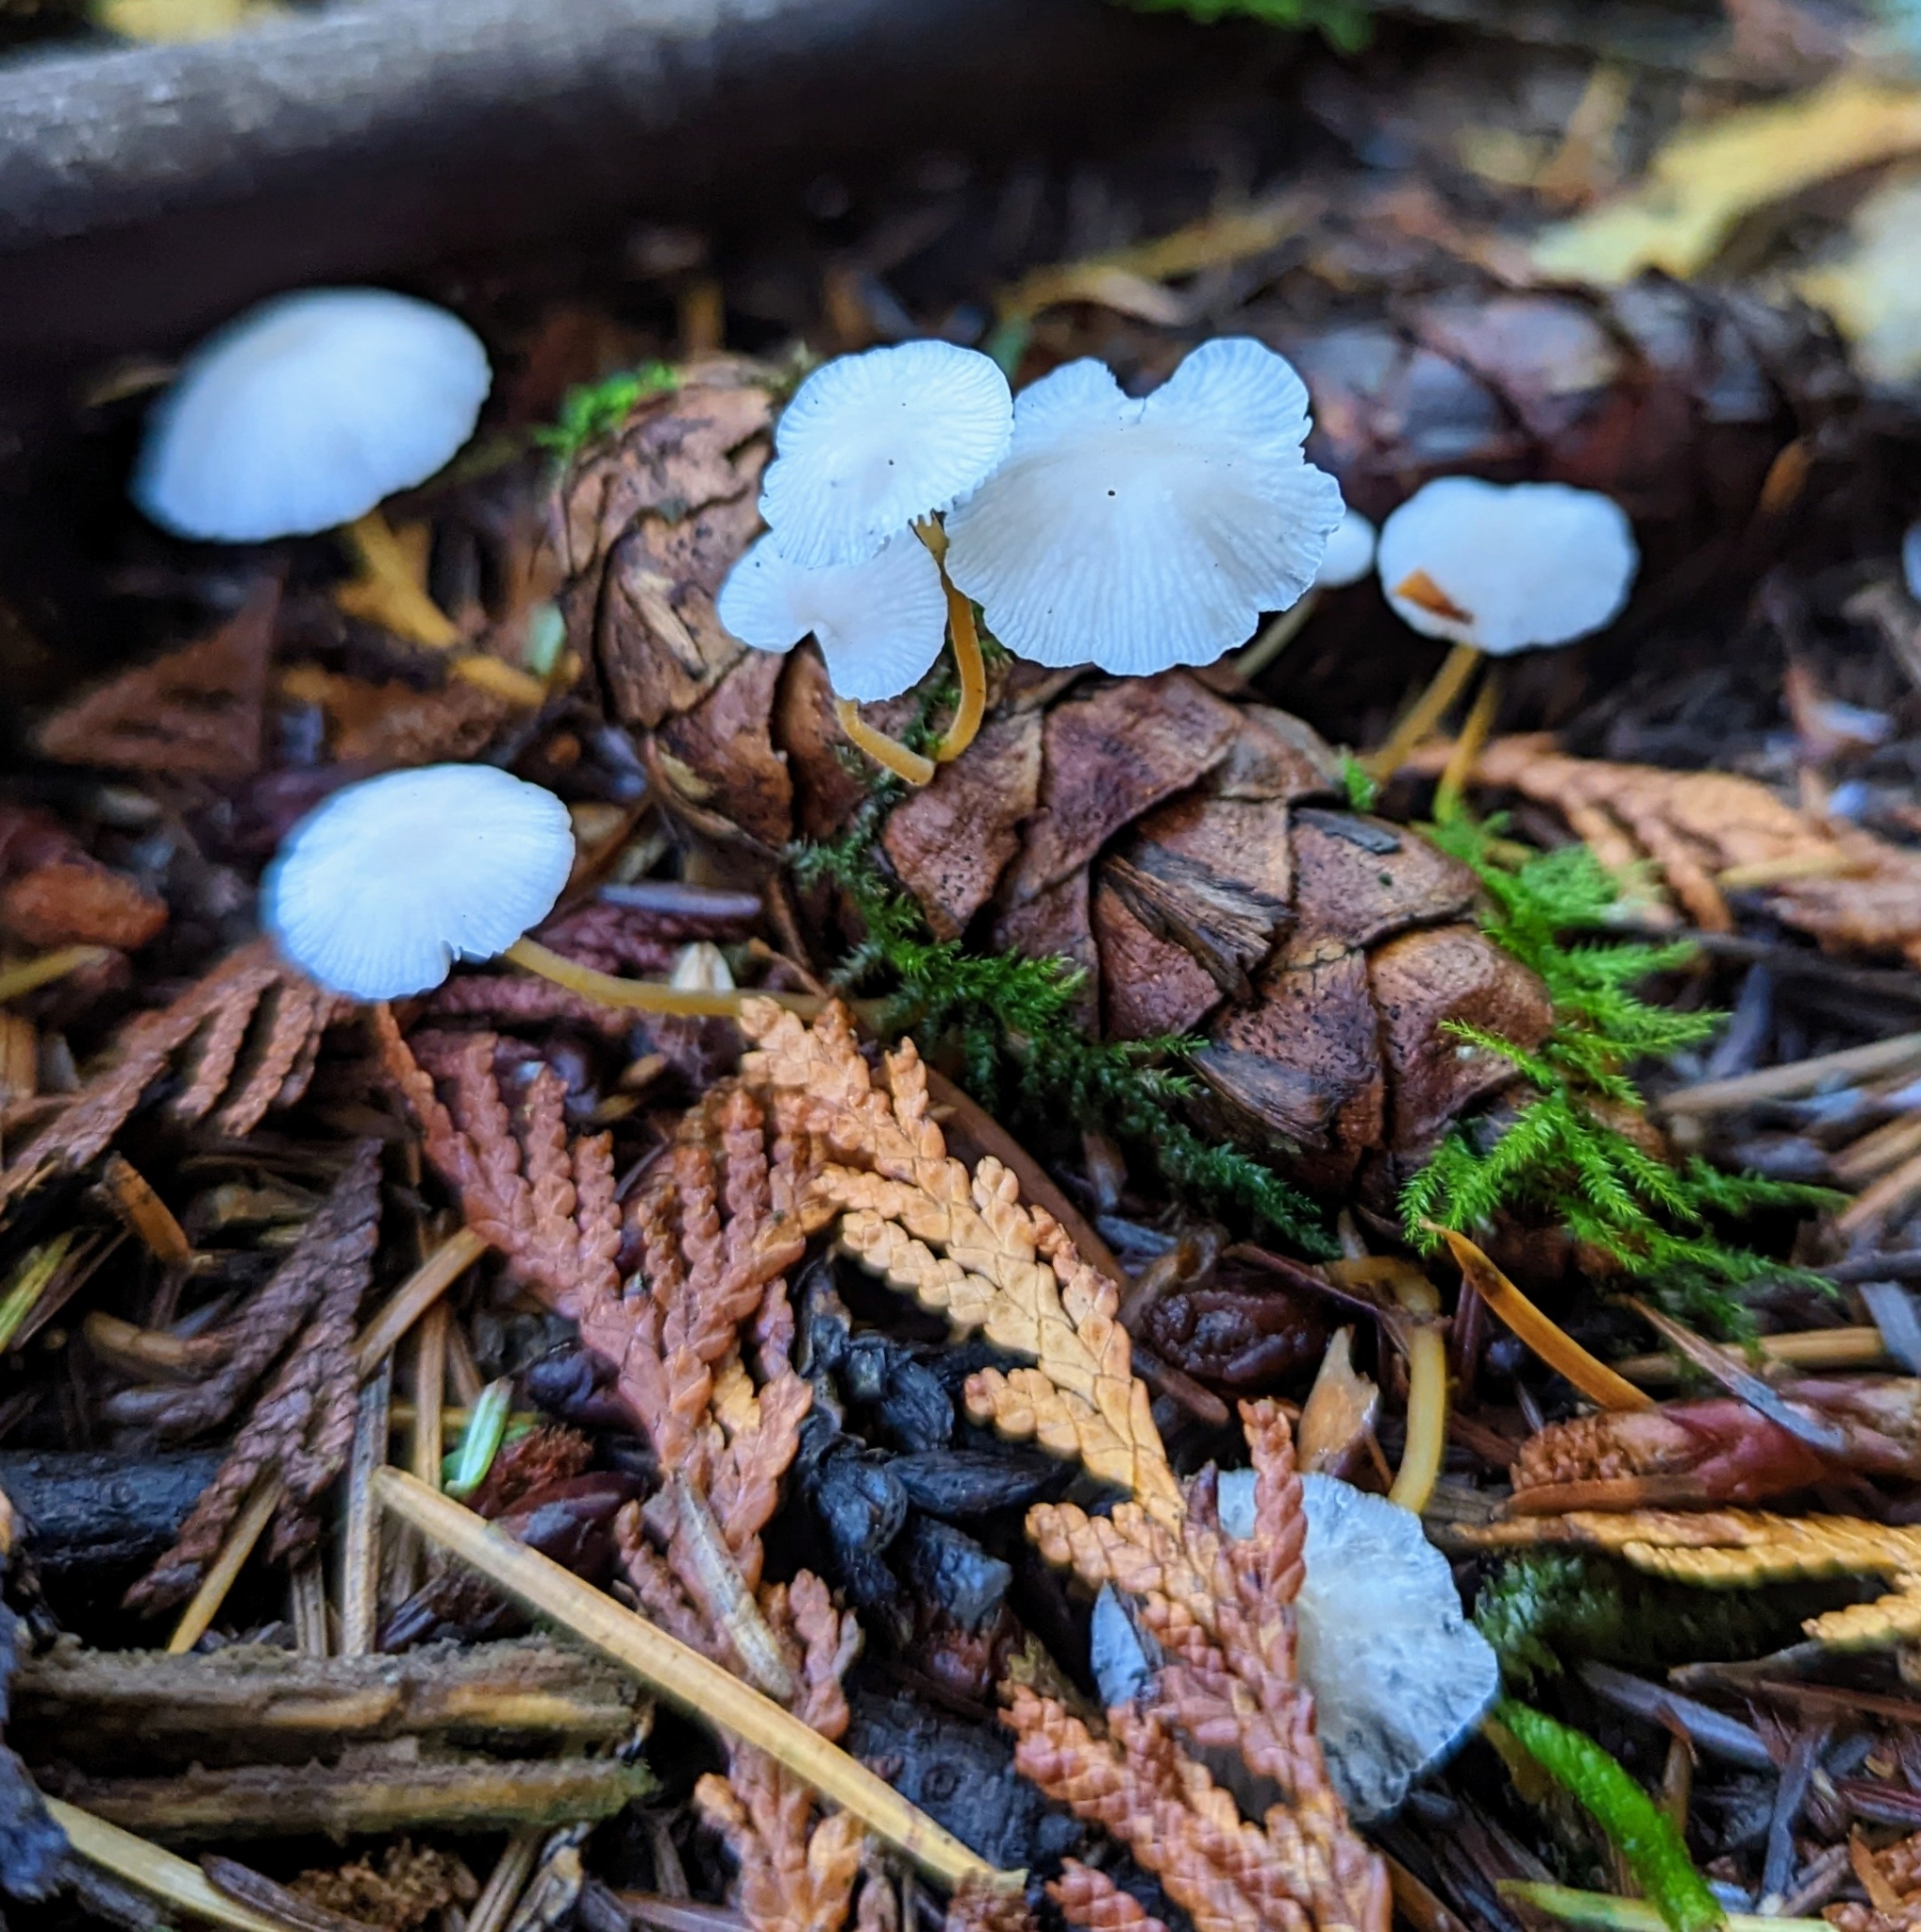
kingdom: Fungi
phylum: Basidiomycota
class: Agaricomycetes
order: Agaricales
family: Physalacriaceae
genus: Strobilurus
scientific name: Strobilurus trullisatus
